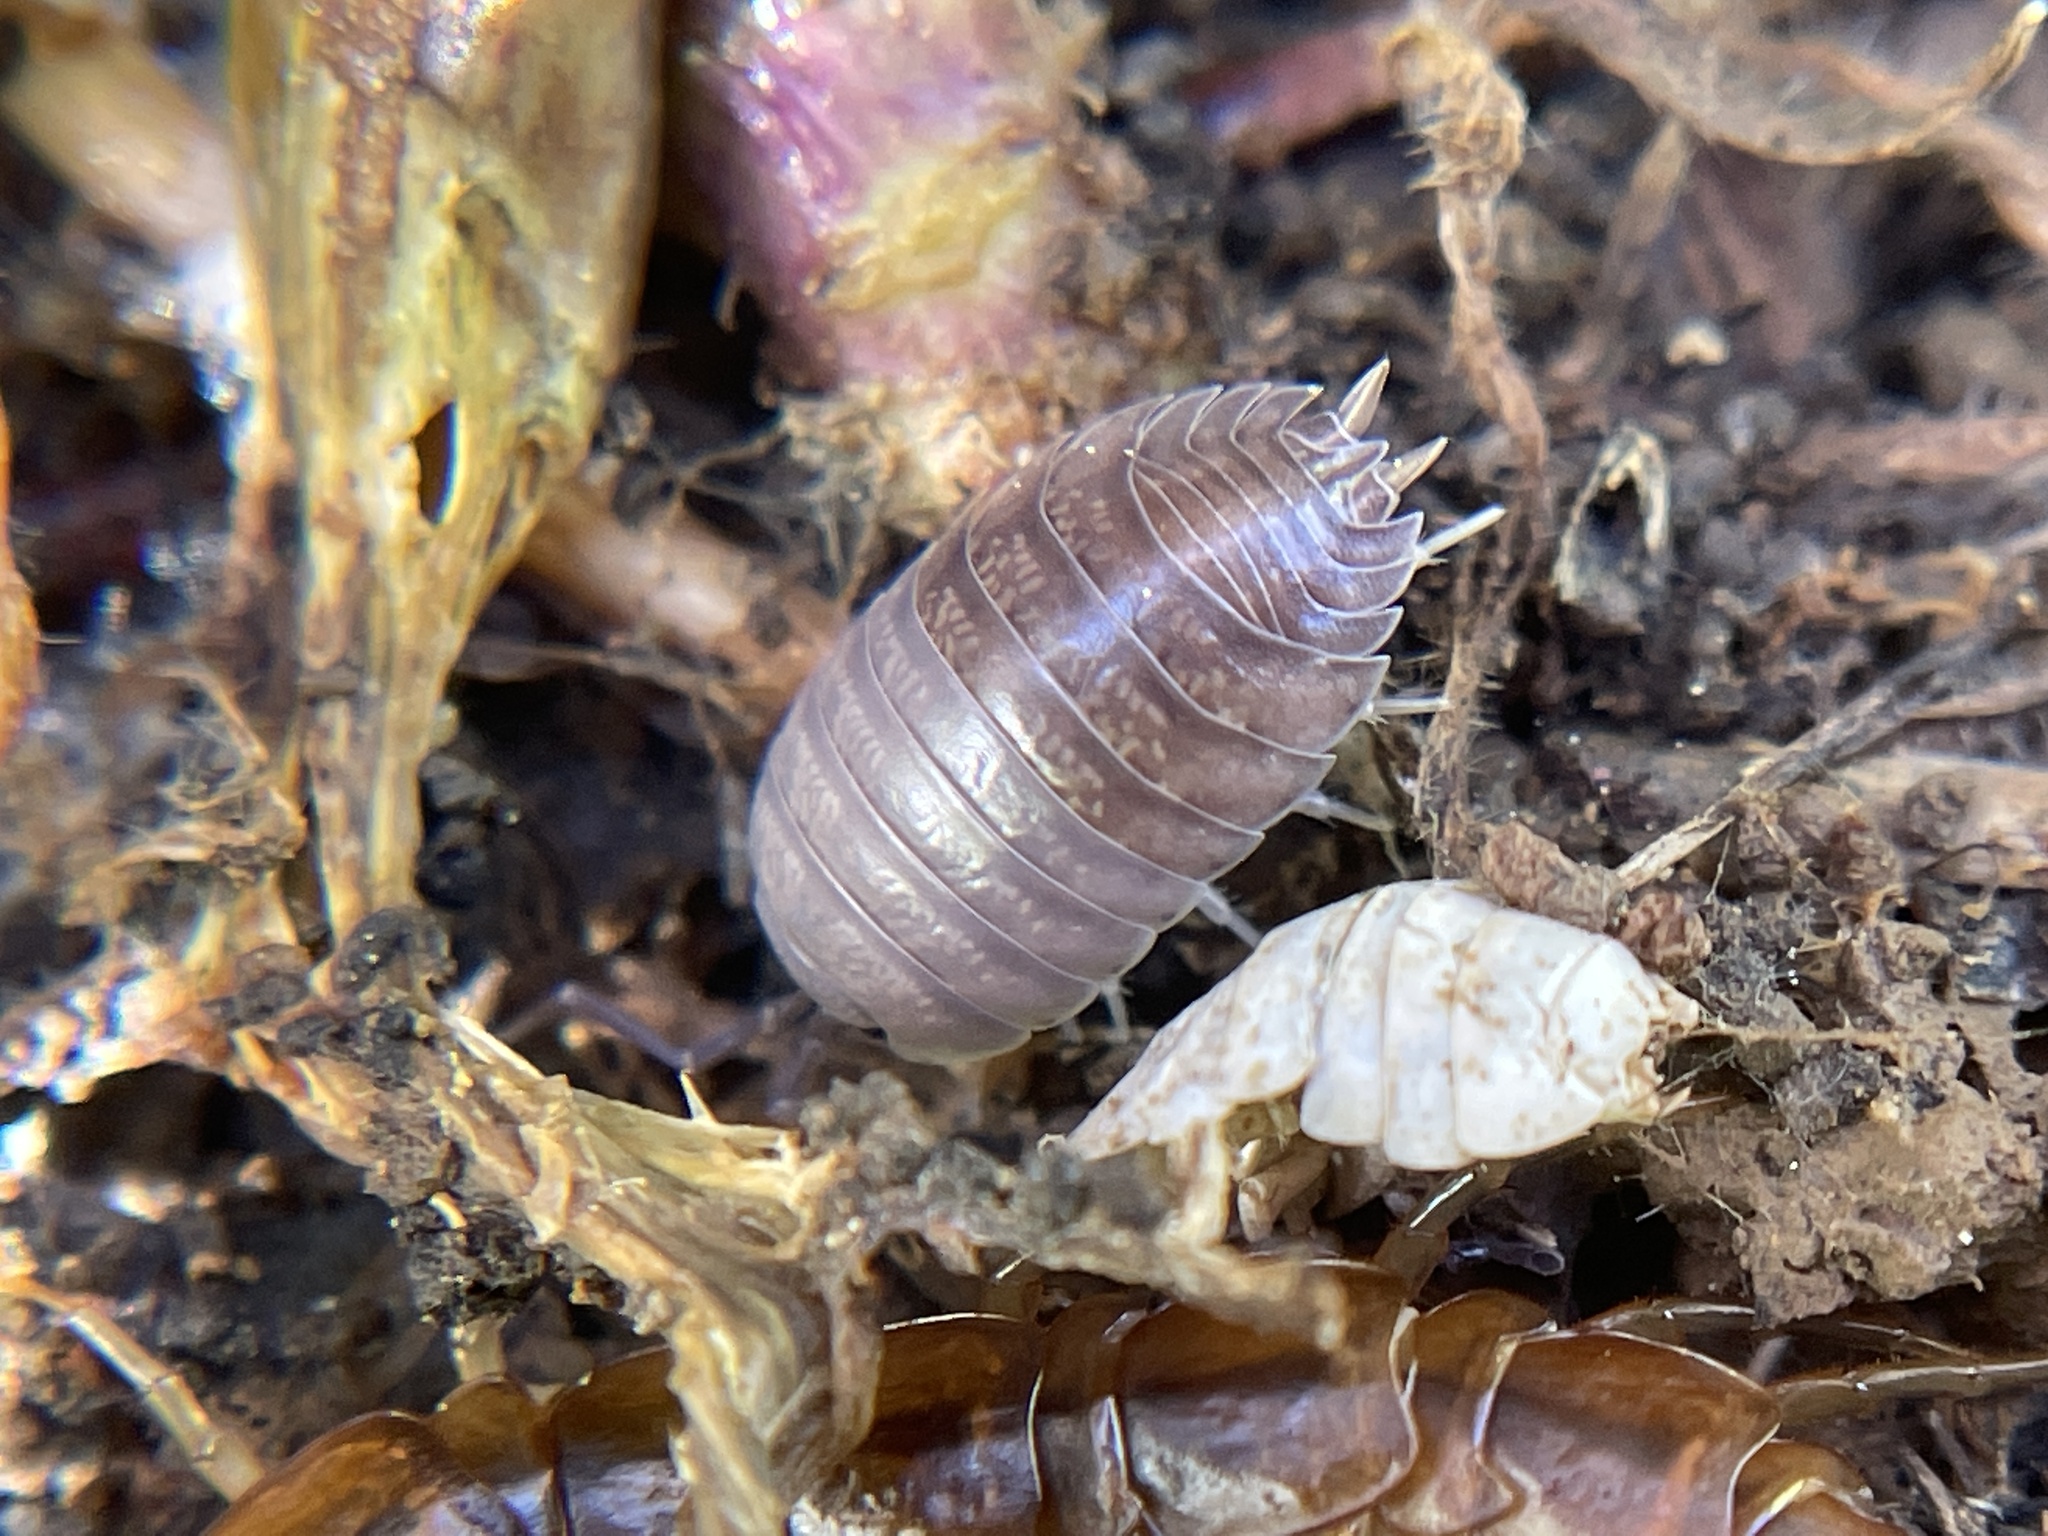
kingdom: Animalia
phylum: Arthropoda
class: Malacostraca
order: Isopoda
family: Porcellionidae
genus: Porcellio
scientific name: Porcellio laevis
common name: Swift woodlouse
